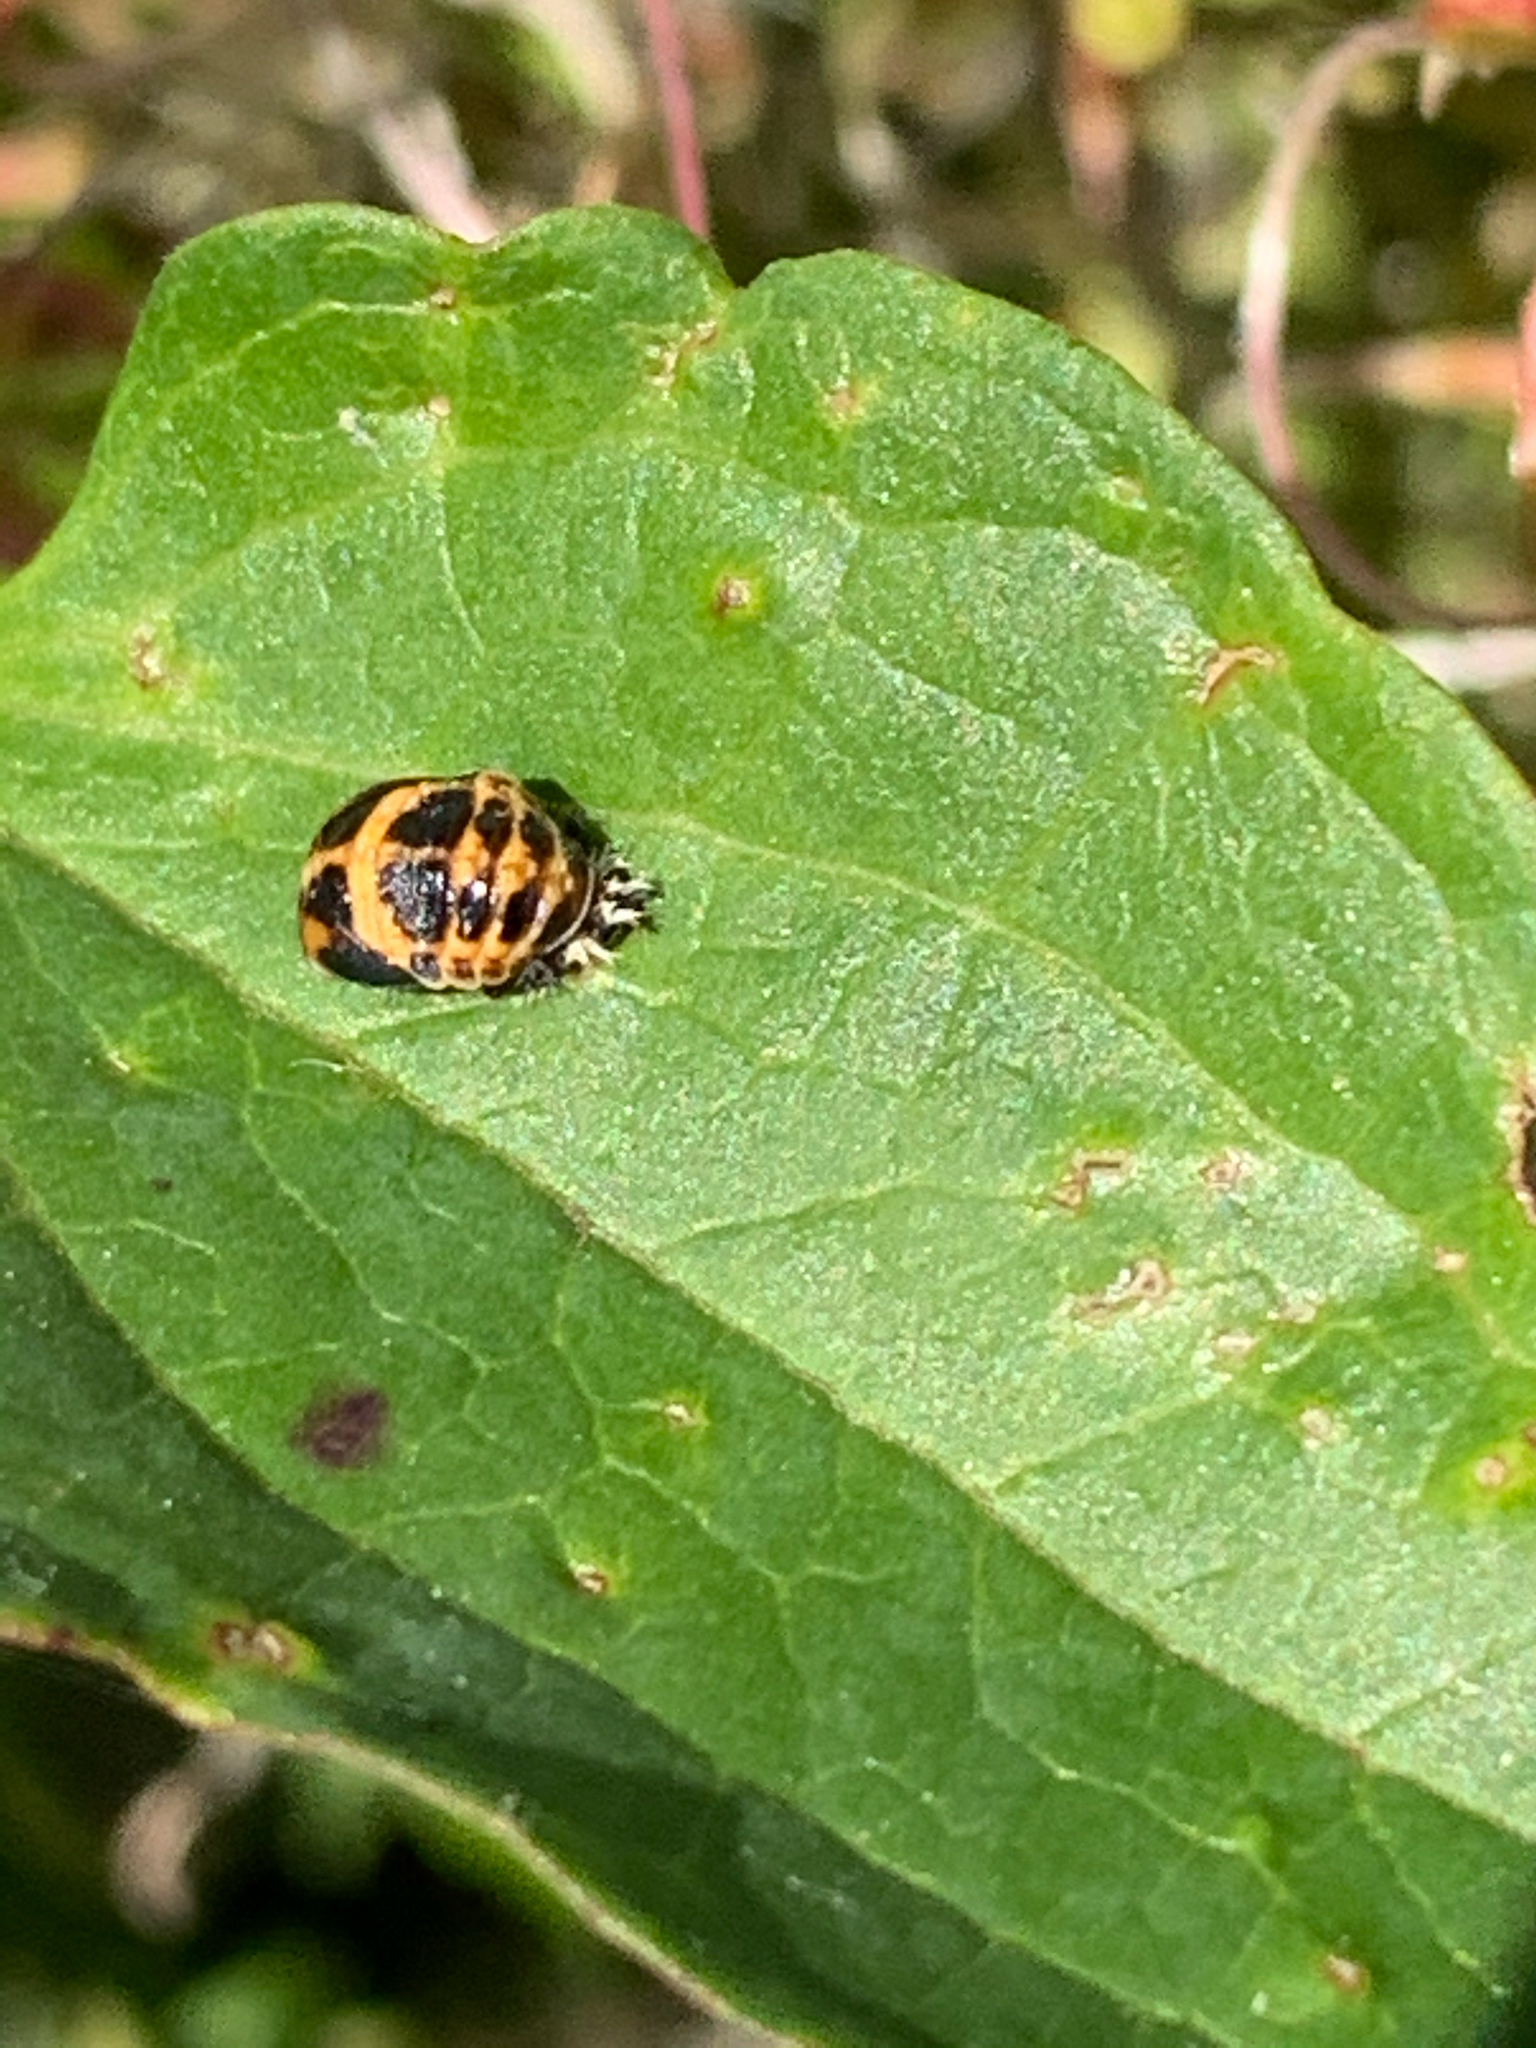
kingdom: Animalia
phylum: Arthropoda
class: Insecta
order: Coleoptera
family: Coccinellidae
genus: Harmonia
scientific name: Harmonia axyridis
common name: Harlequin ladybird
